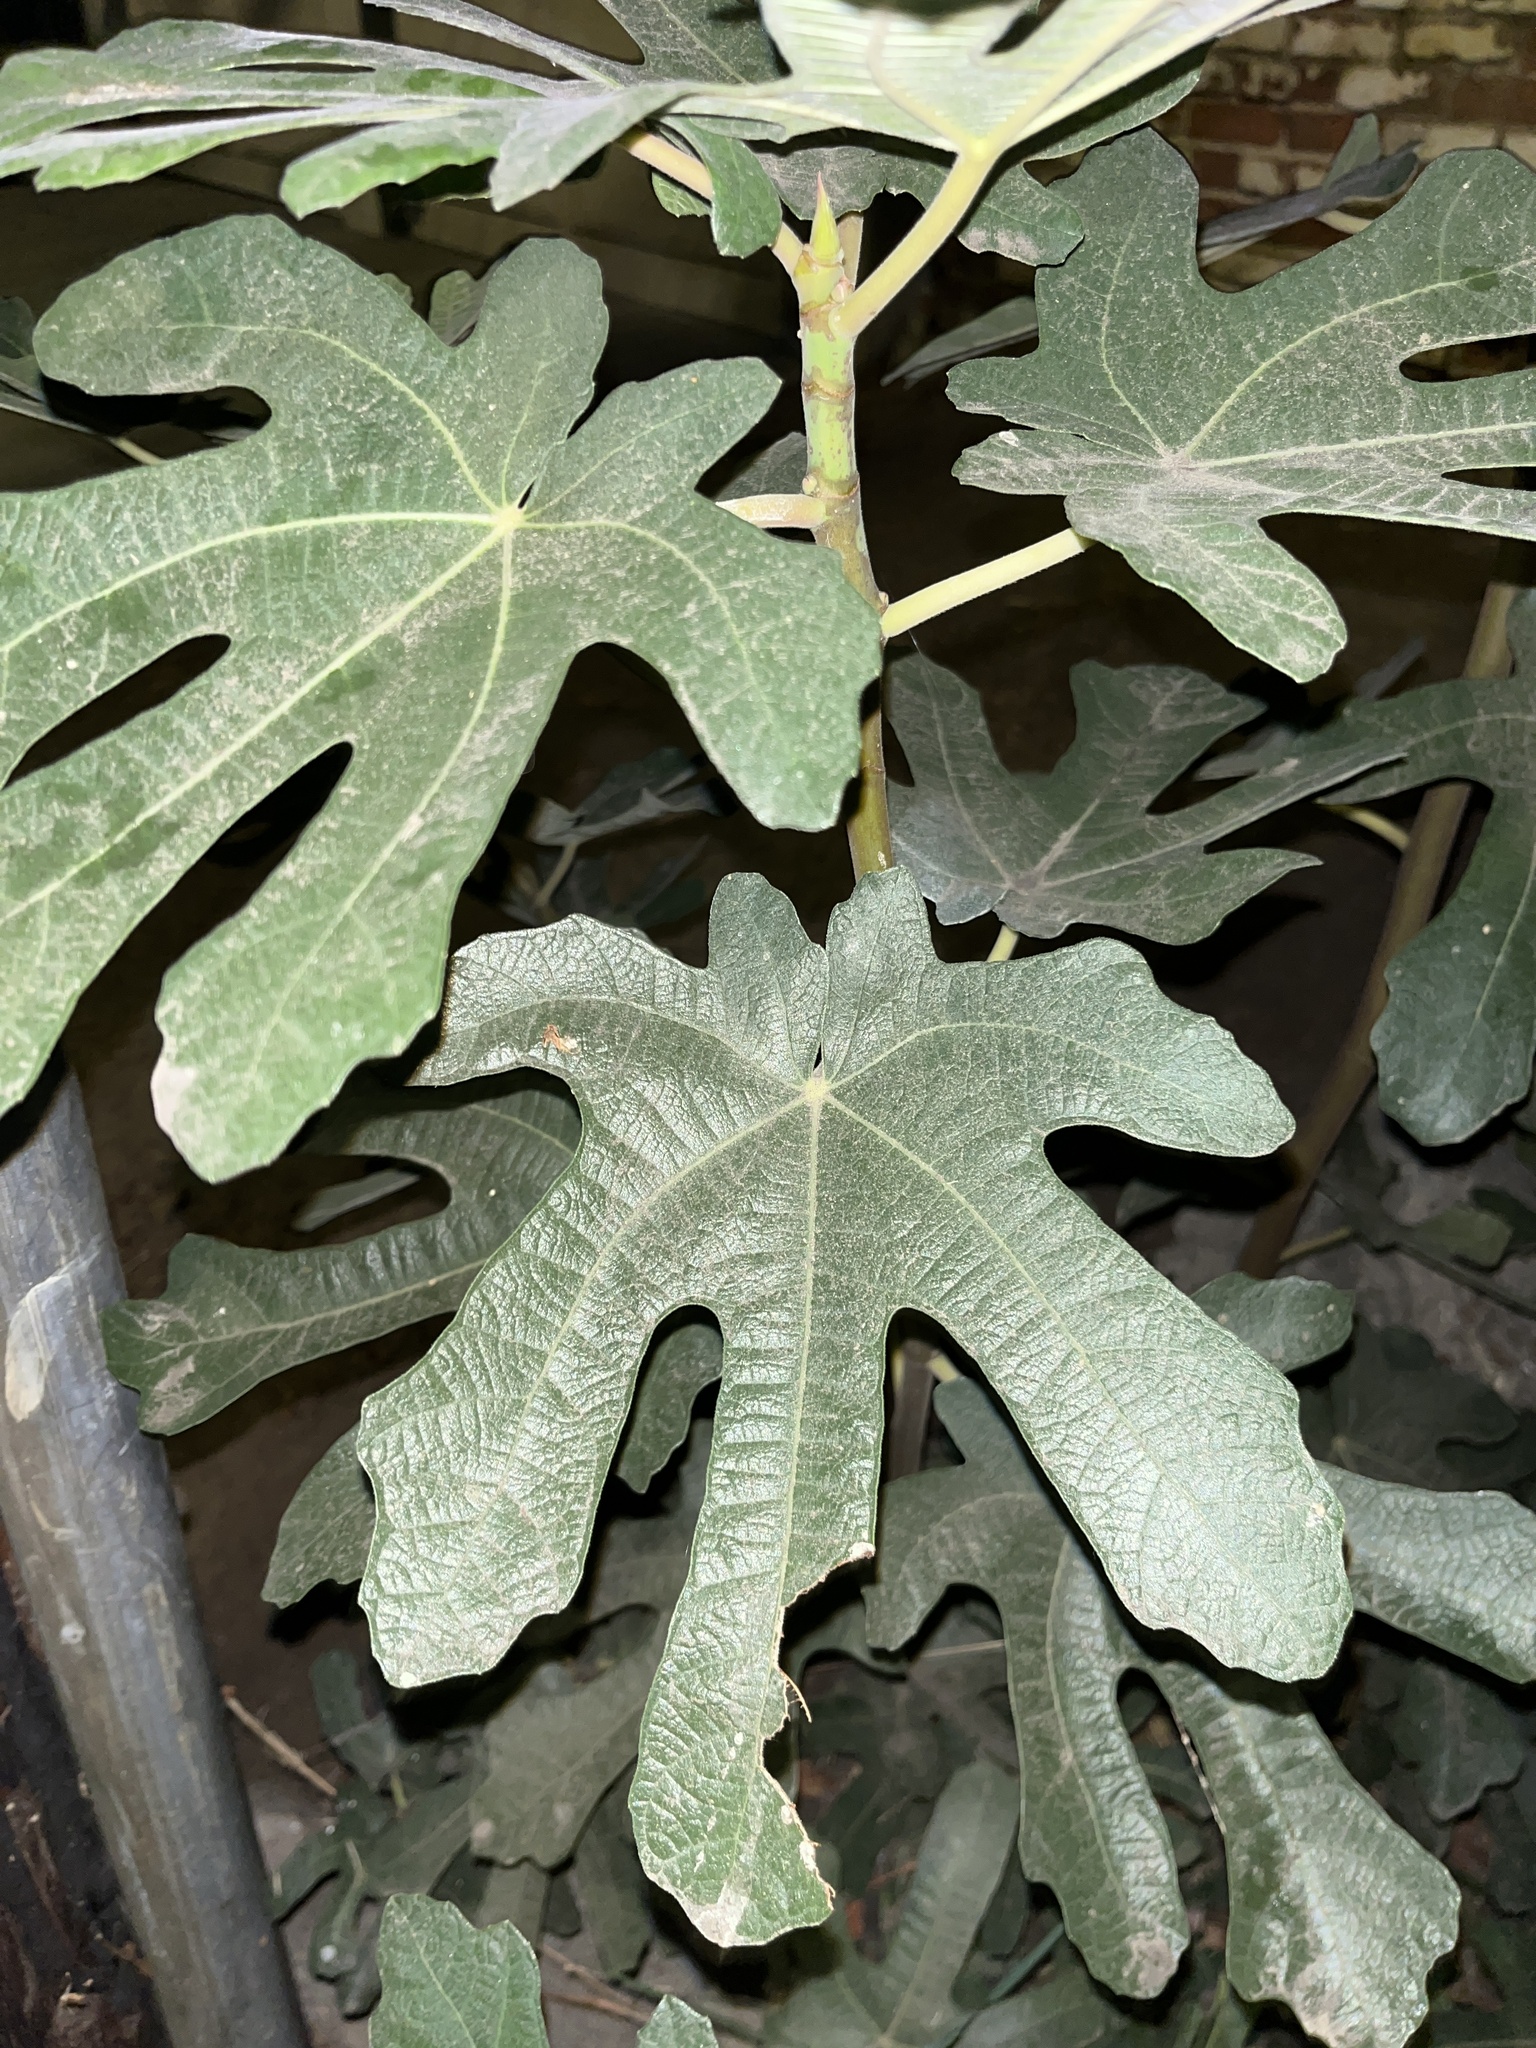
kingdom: Plantae
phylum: Tracheophyta
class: Magnoliopsida
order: Rosales
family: Moraceae
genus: Ficus
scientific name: Ficus carica
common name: Fig
